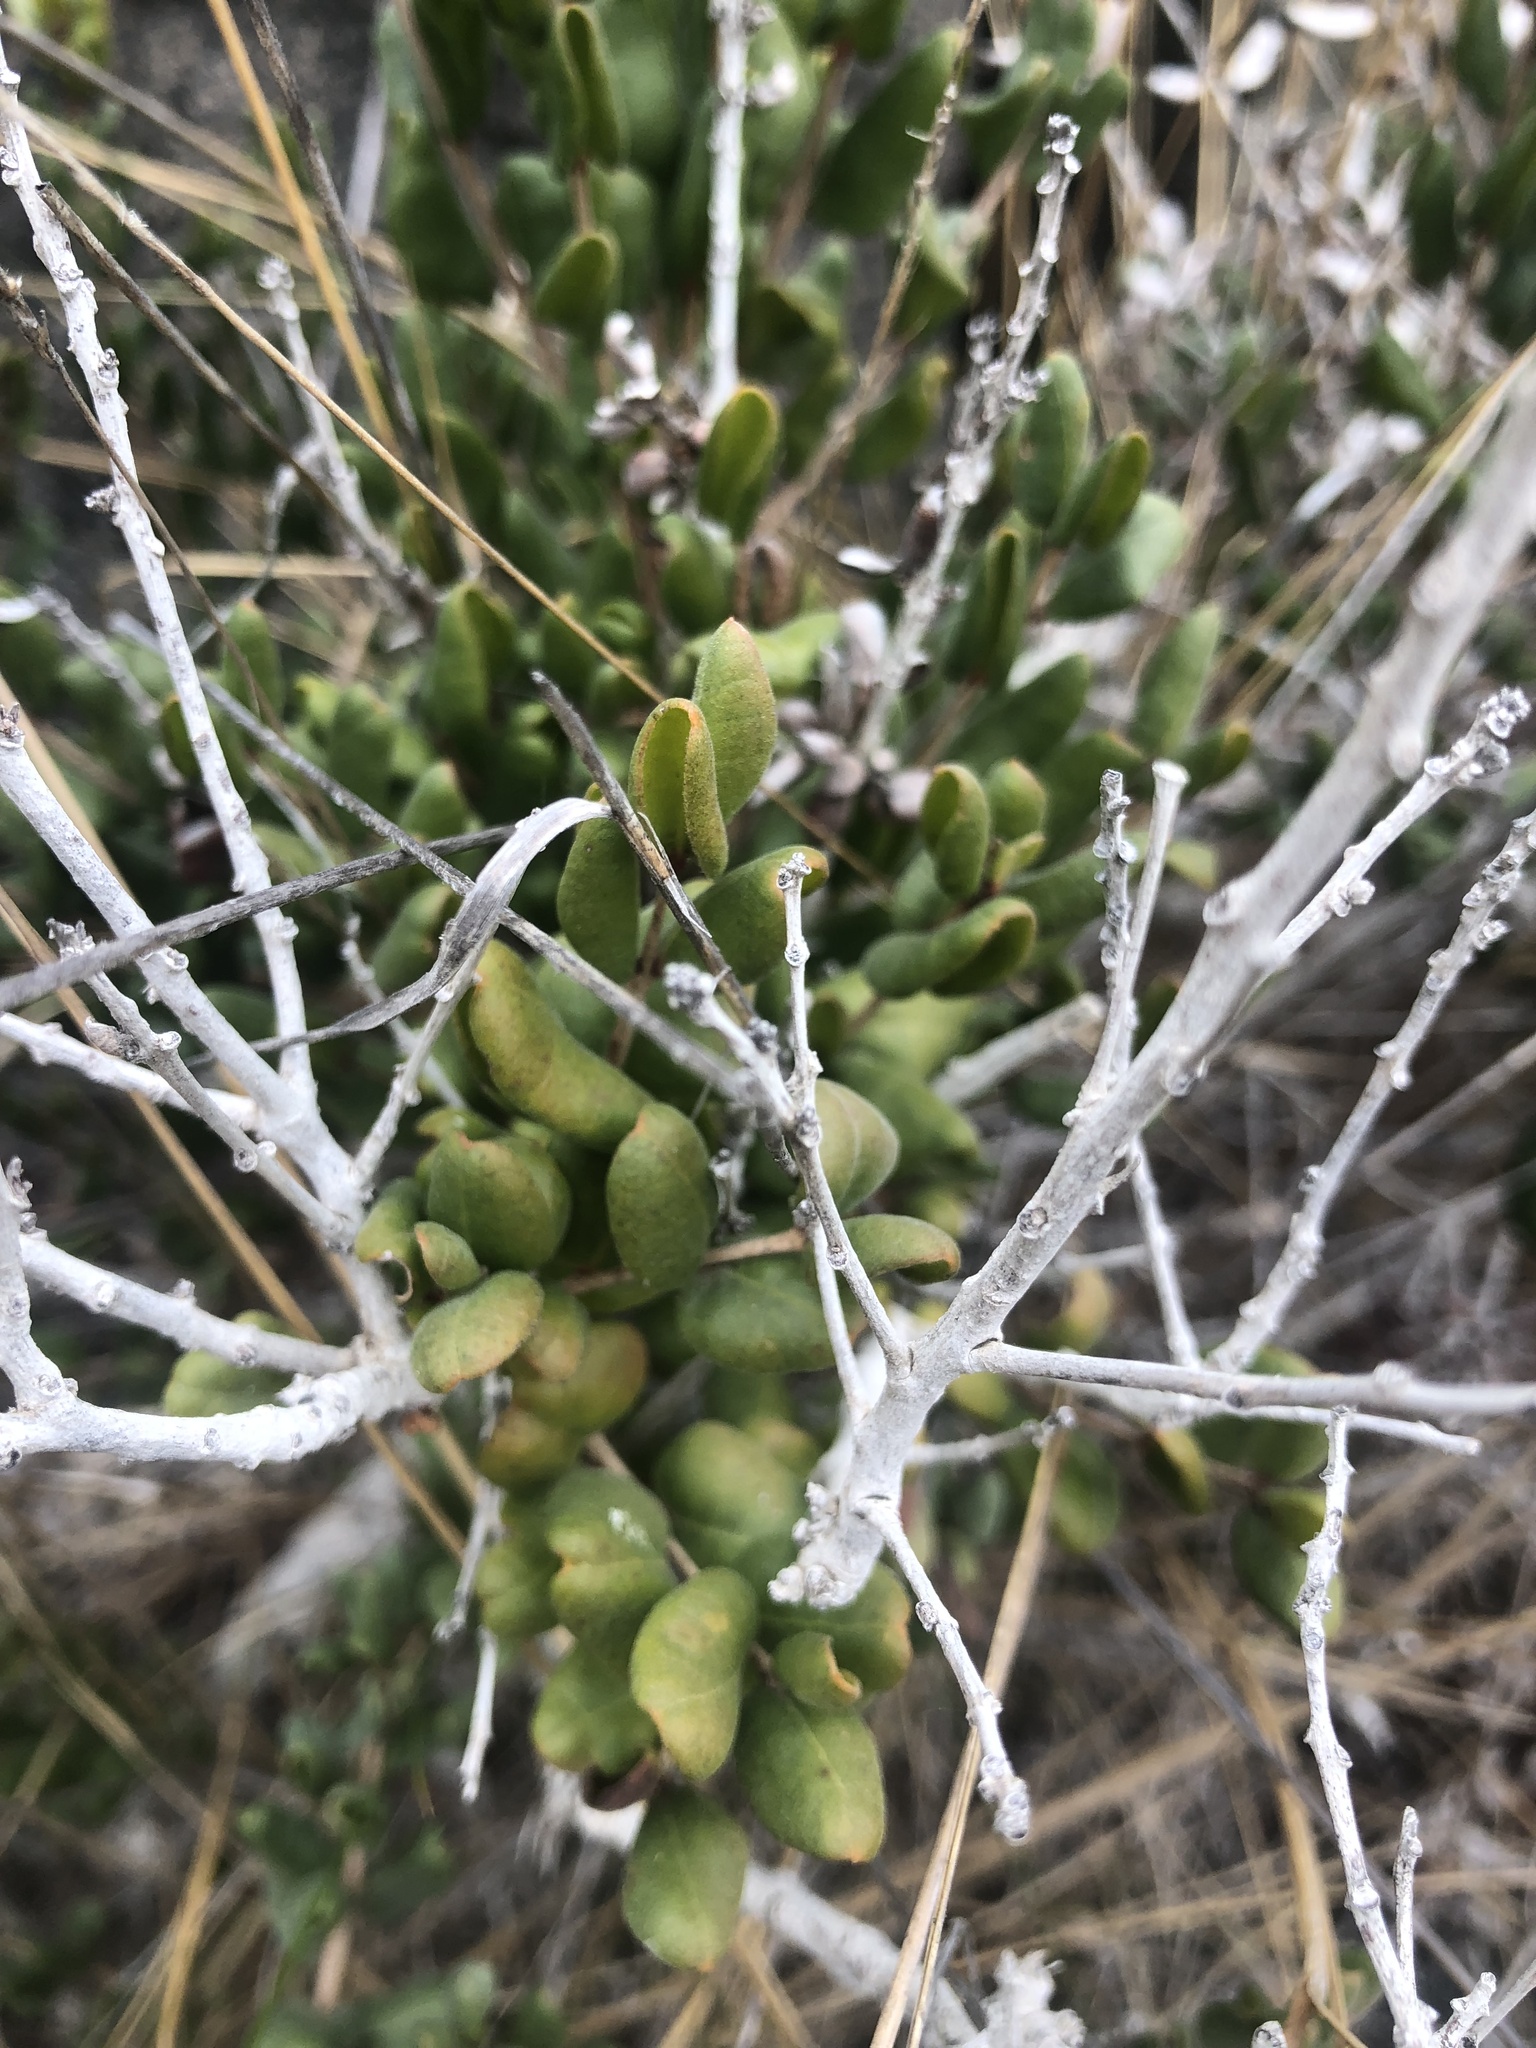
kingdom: Plantae
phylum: Tracheophyta
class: Magnoliopsida
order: Myrtales
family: Myrtaceae
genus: Myrcianthes
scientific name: Myrcianthes coquimbensis
